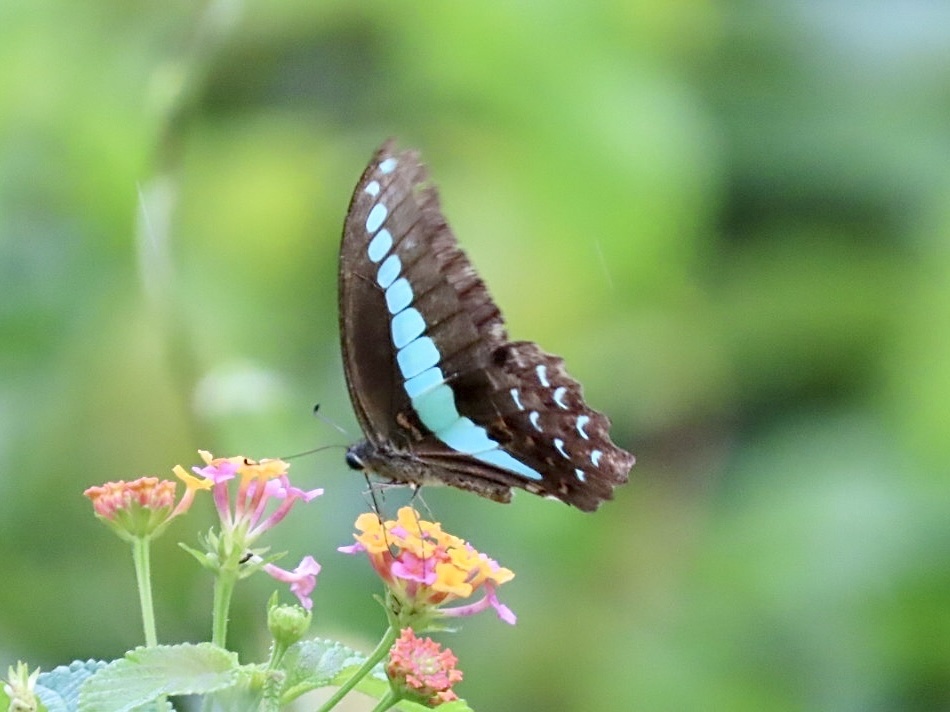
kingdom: Fungi
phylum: Ascomycota
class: Sordariomycetes
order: Microascales
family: Microascaceae
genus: Graphium
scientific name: Graphium sarpedon
